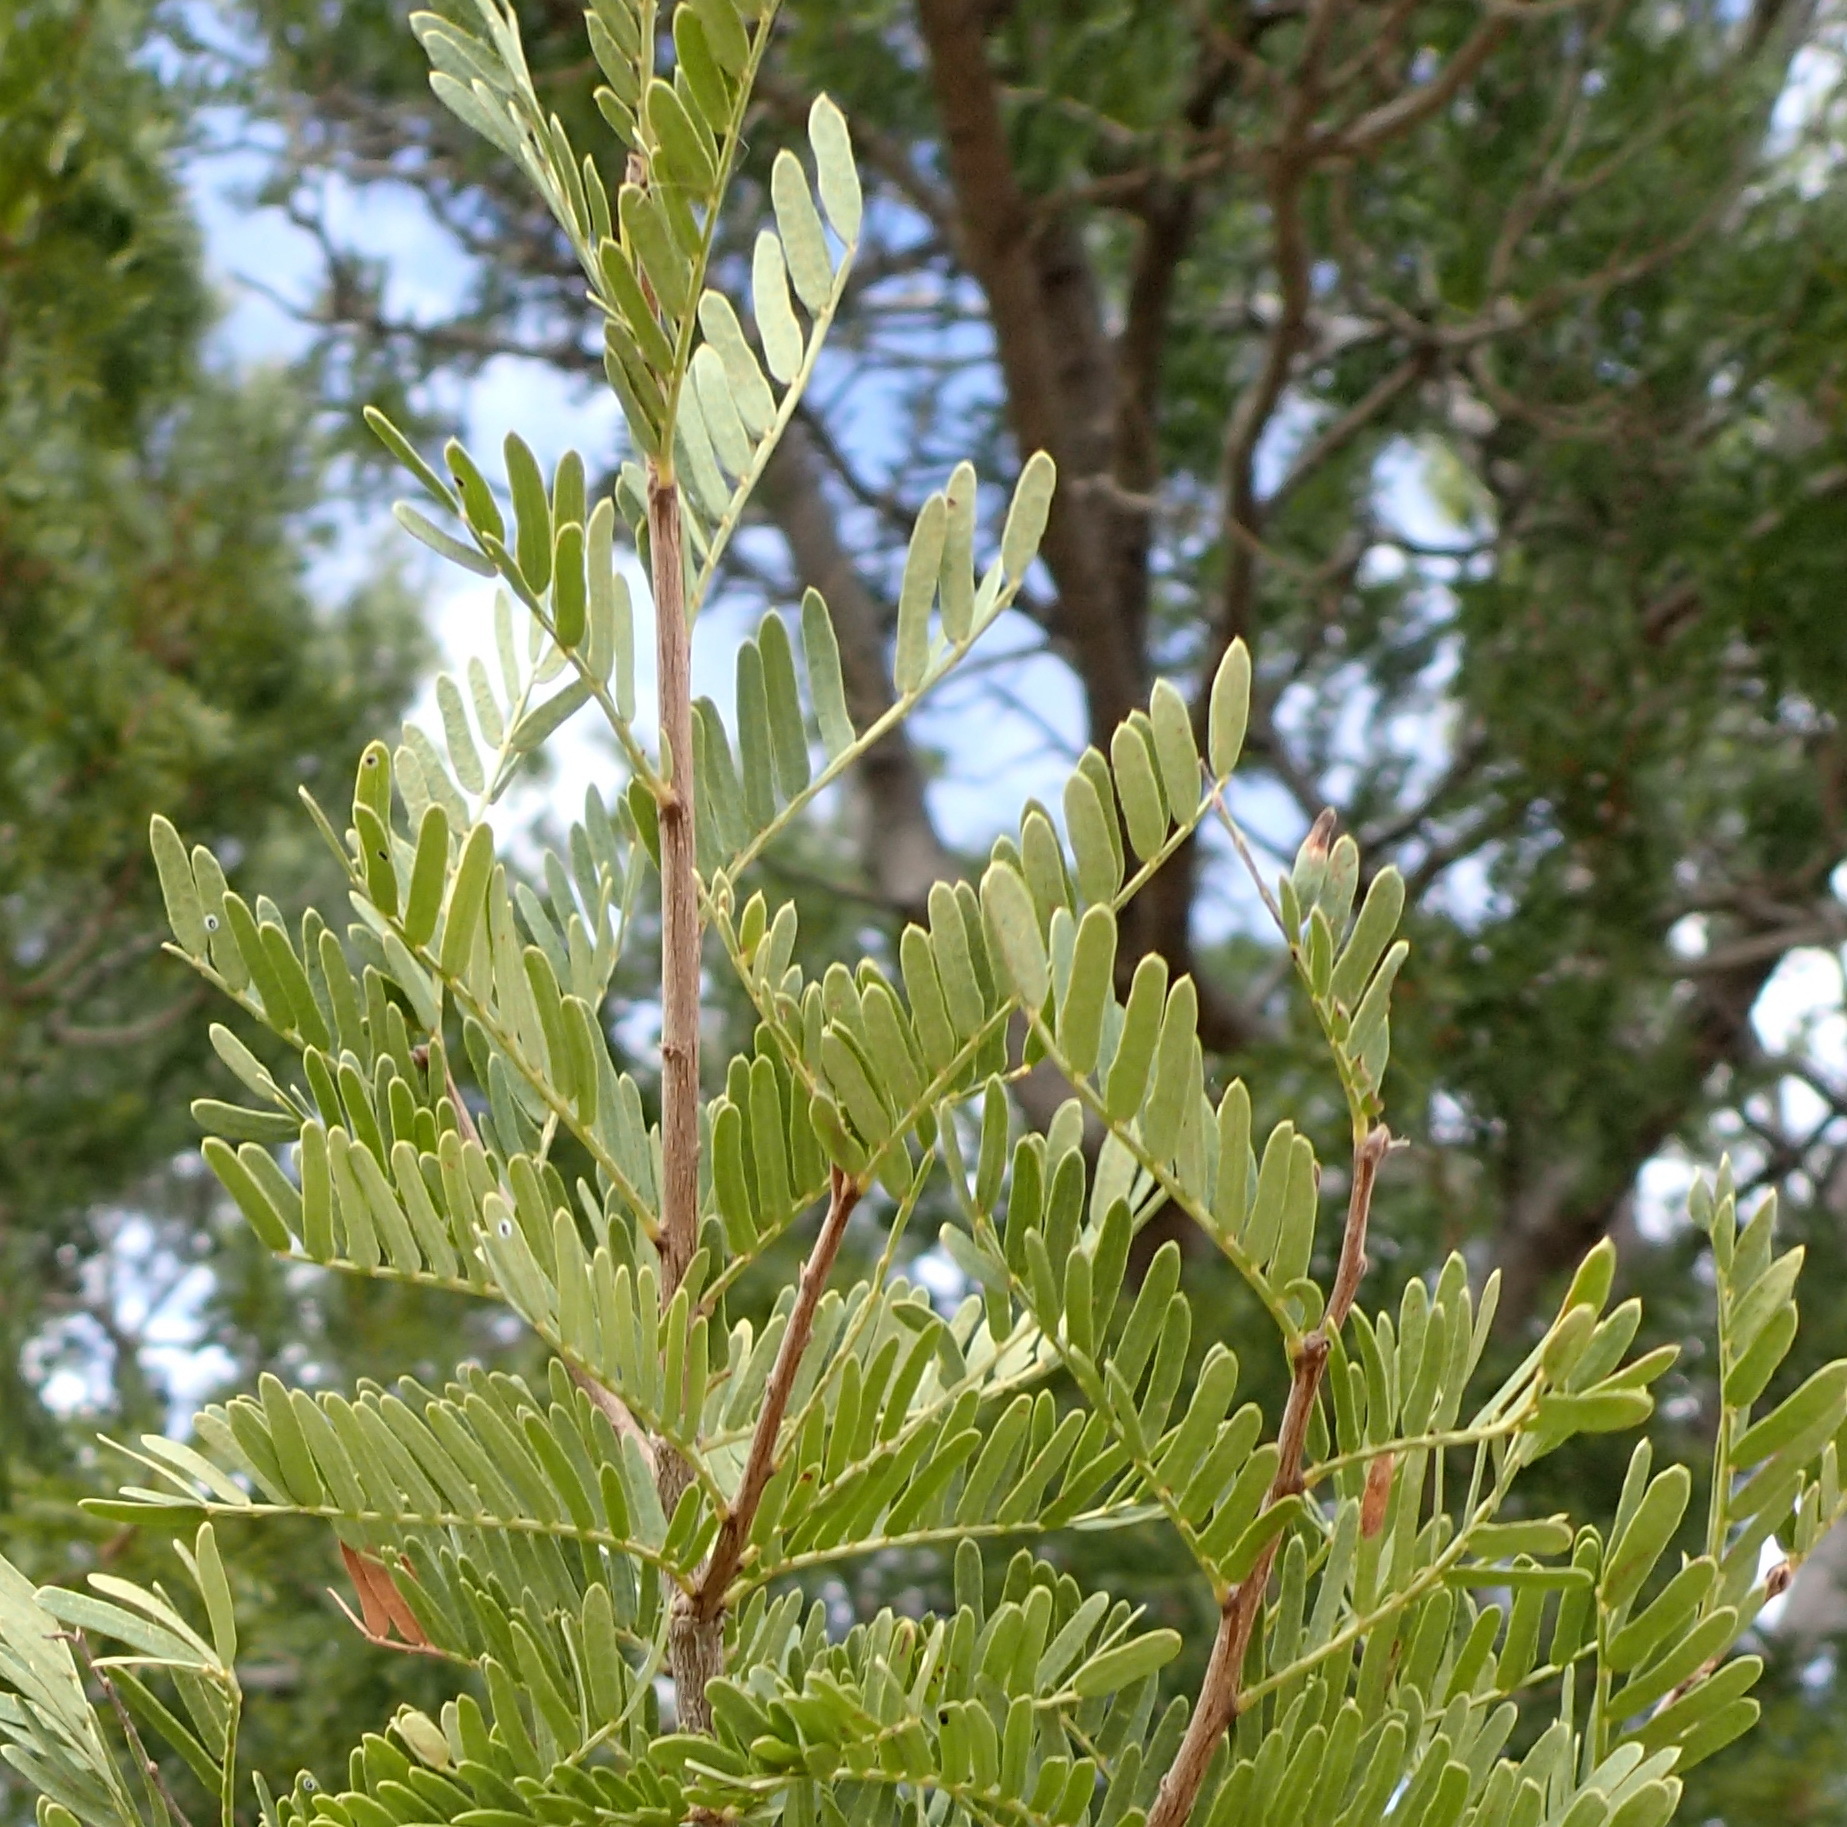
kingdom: Plantae
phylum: Tracheophyta
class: Magnoliopsida
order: Fabales
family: Fabaceae
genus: Schotia
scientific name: Schotia afra
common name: Hottentot's bean
